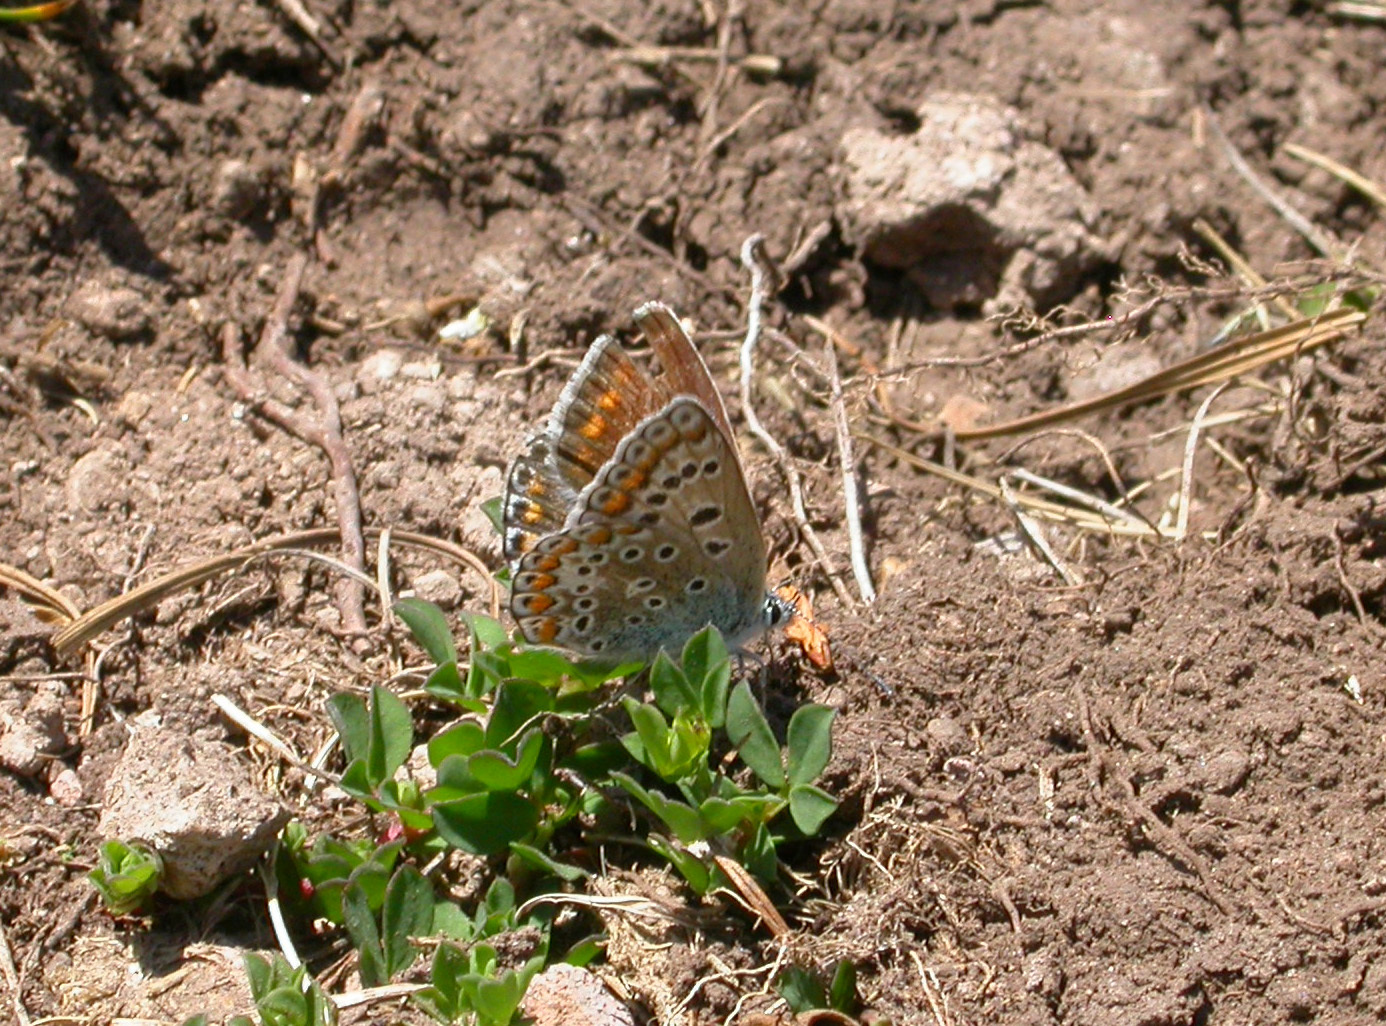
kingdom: Animalia
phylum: Arthropoda
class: Insecta
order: Lepidoptera
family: Lycaenidae
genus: Polyommatus
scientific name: Polyommatus icarus
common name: Common blue
